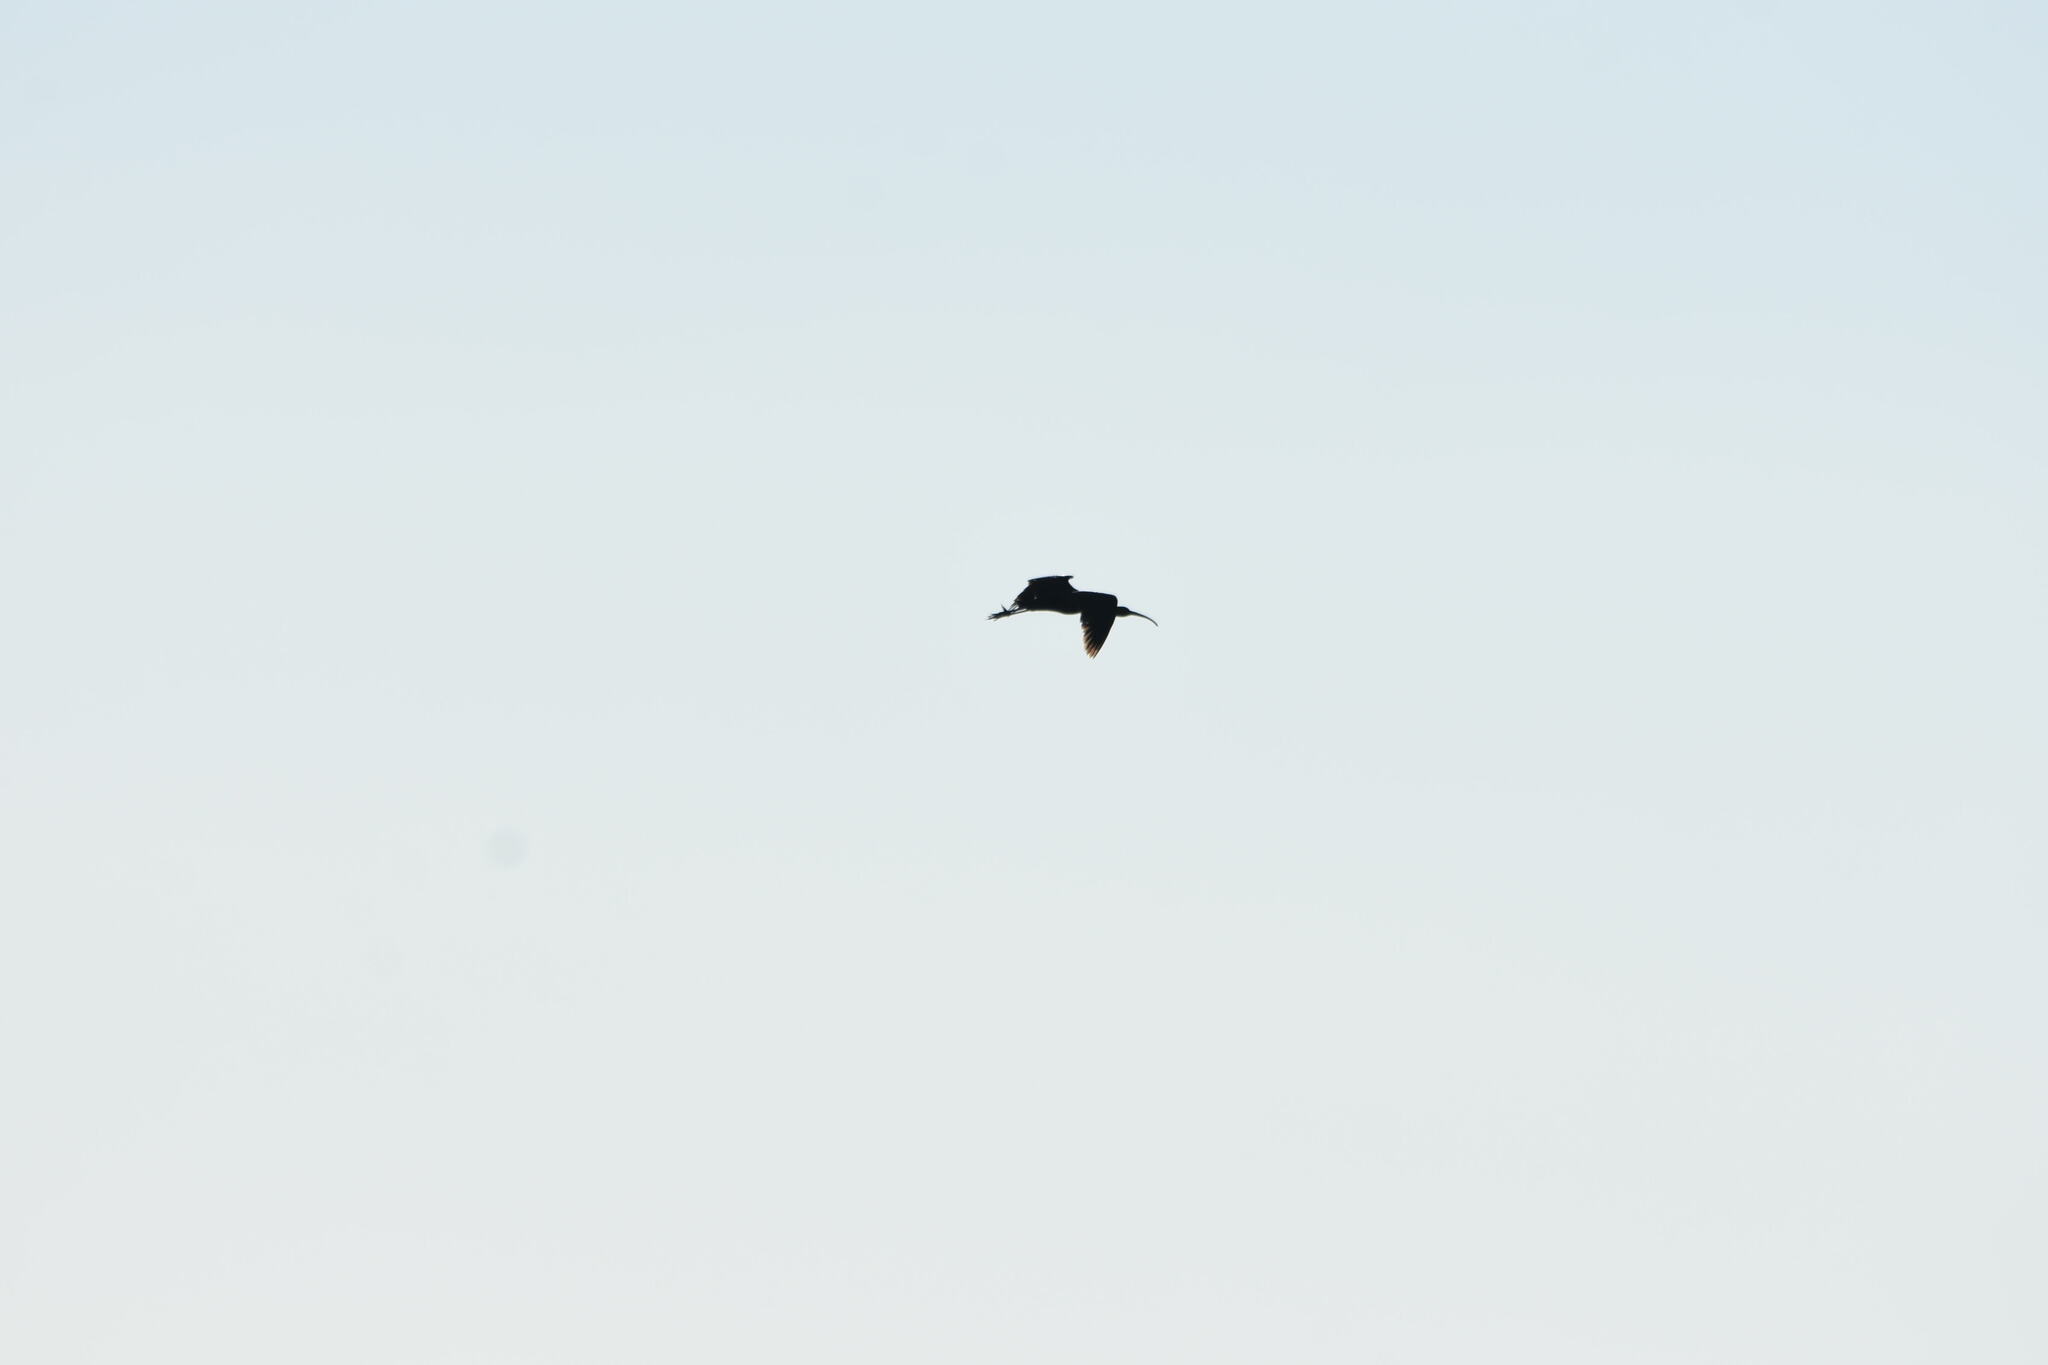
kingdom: Animalia
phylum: Chordata
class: Aves
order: Pelecaniformes
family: Threskiornithidae
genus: Plegadis
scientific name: Plegadis falcinellus
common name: Glossy ibis
